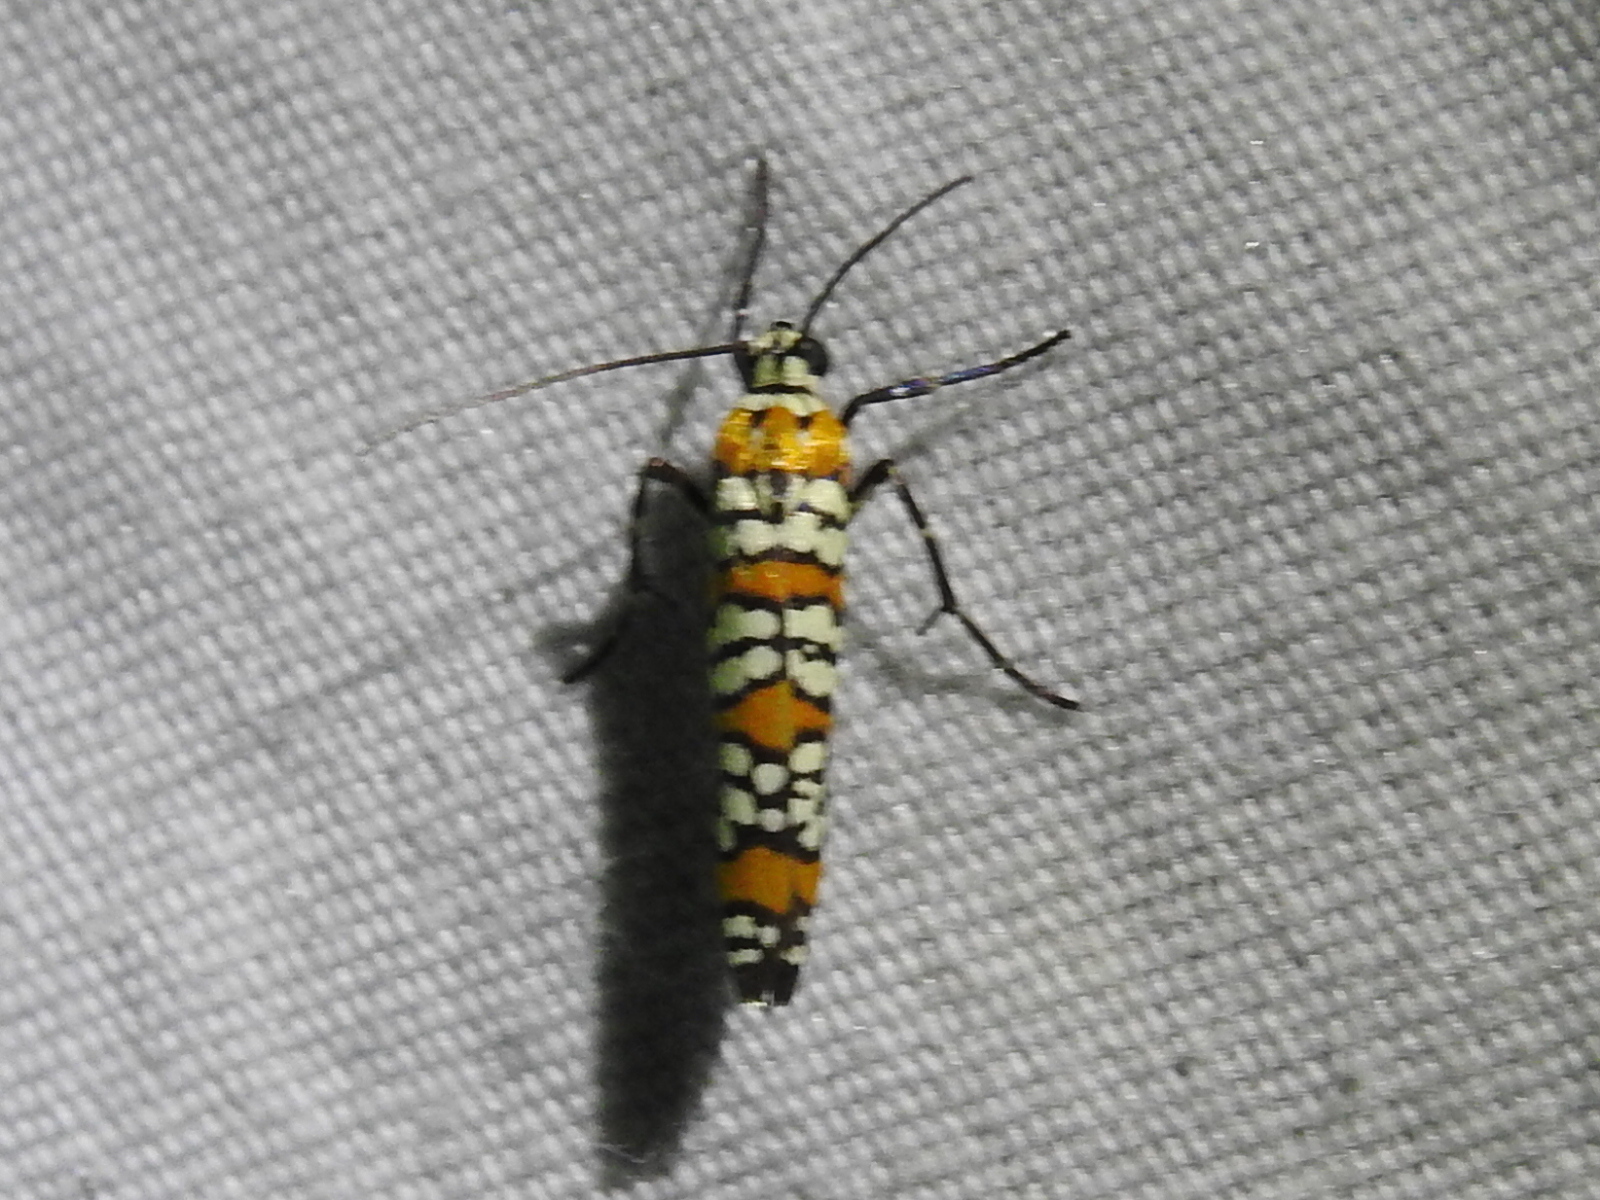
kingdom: Animalia
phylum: Arthropoda
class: Insecta
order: Lepidoptera
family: Attevidae
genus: Atteva
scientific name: Atteva punctella
